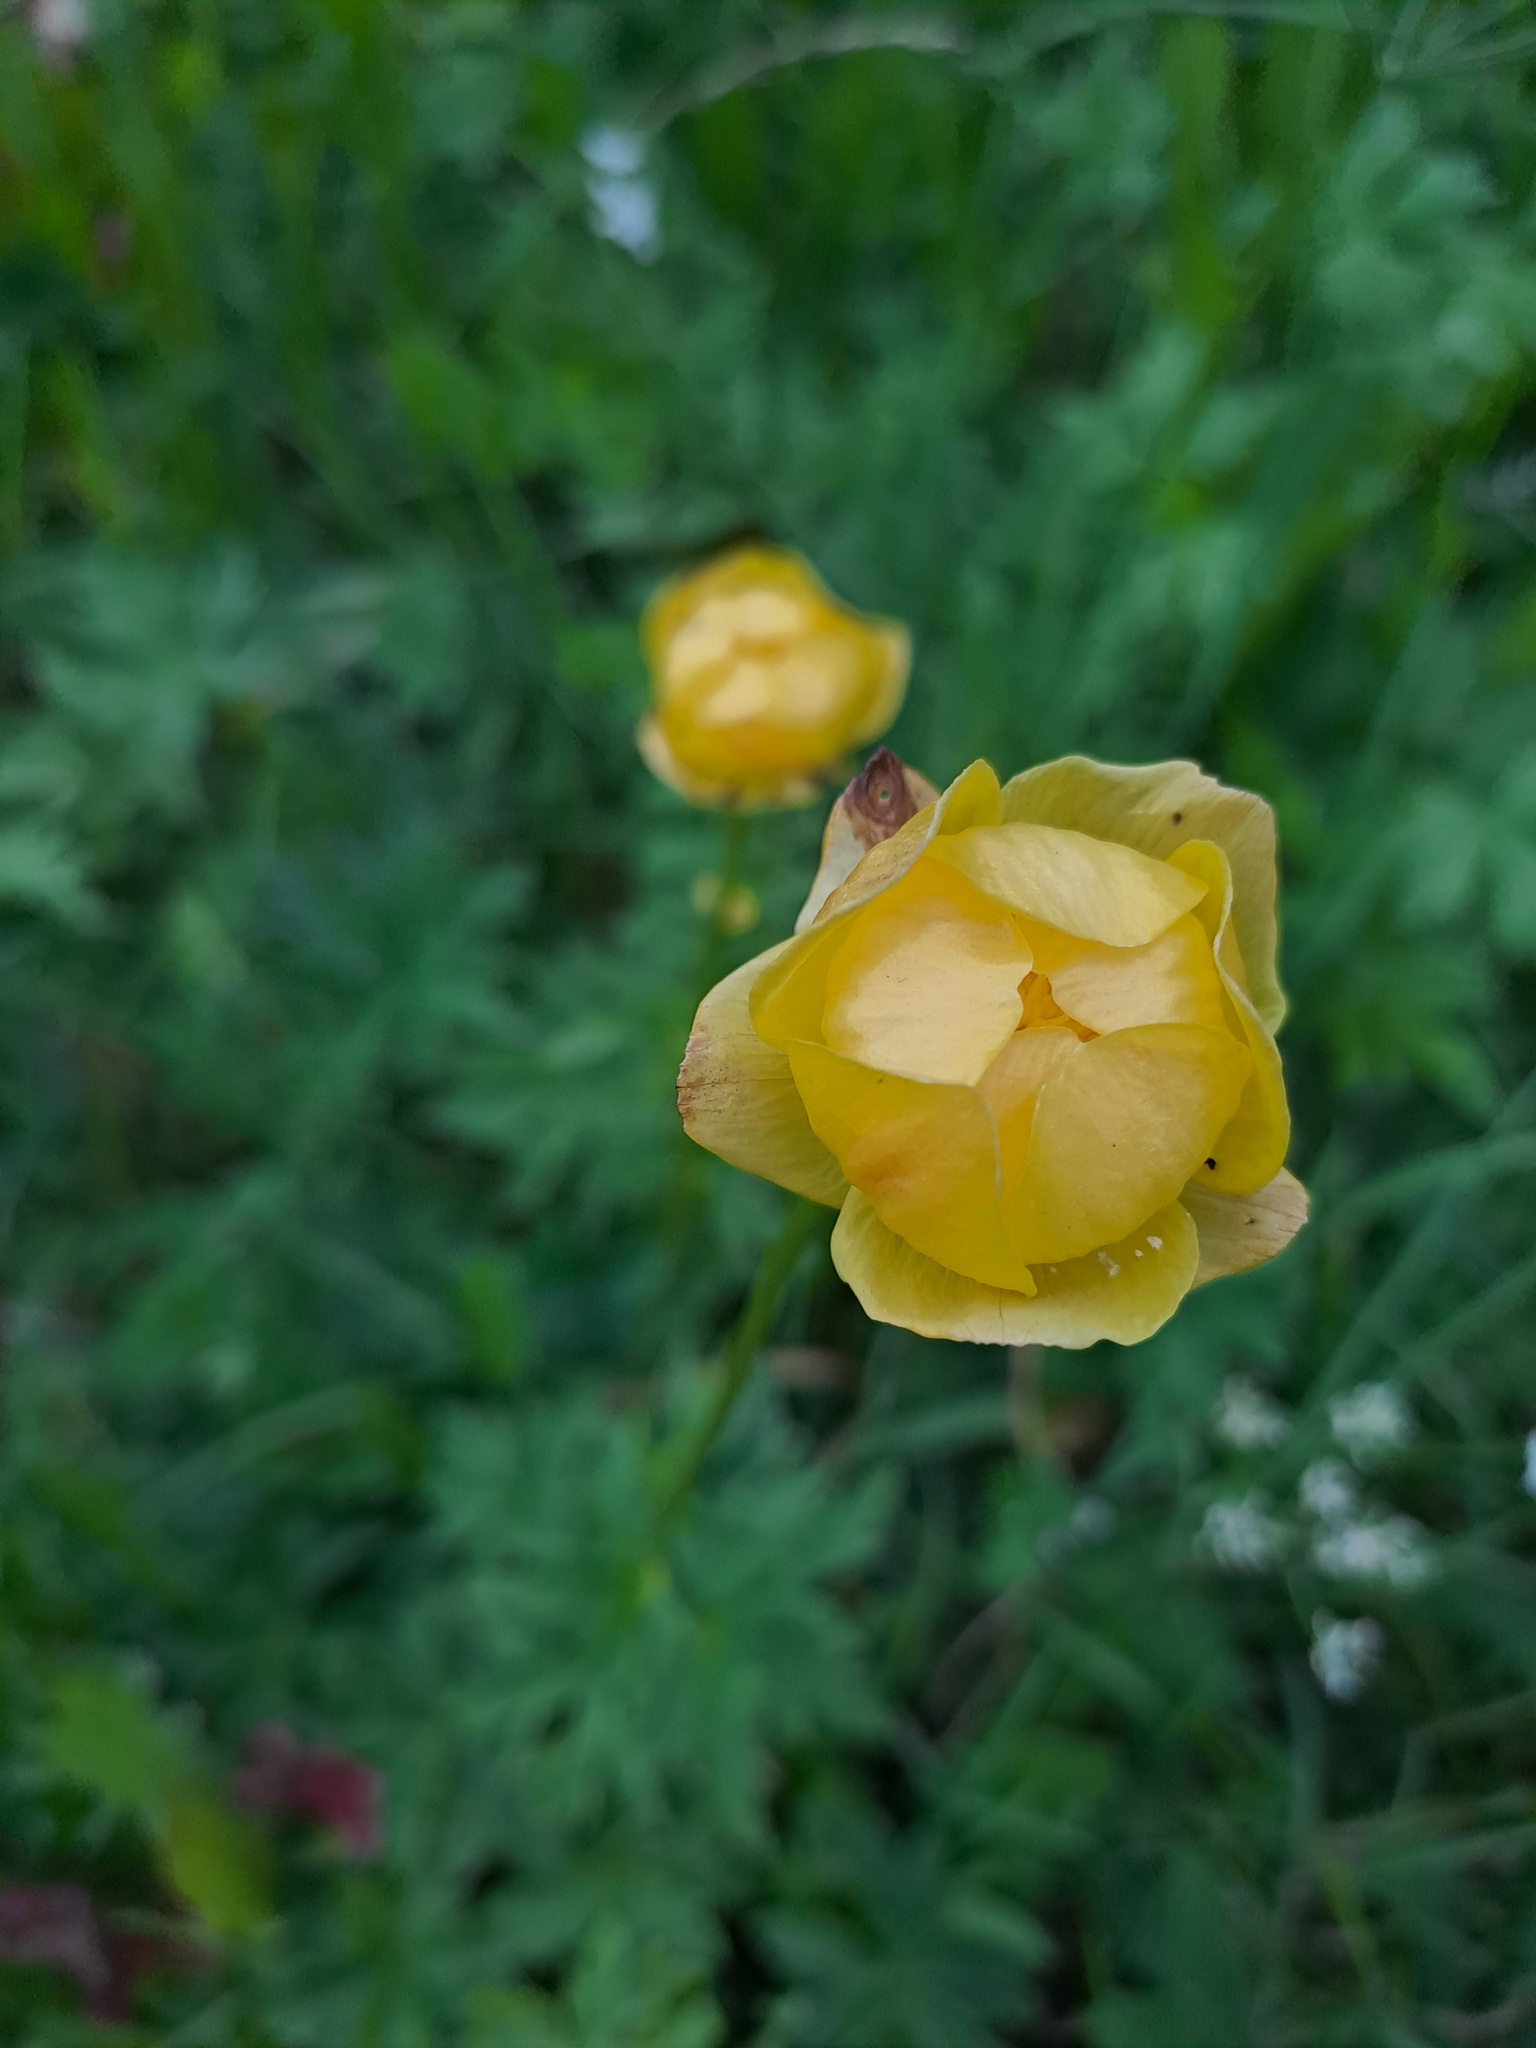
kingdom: Plantae
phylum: Tracheophyta
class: Magnoliopsida
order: Ranunculales
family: Ranunculaceae
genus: Trollius
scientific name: Trollius europaeus
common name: European globeflower
